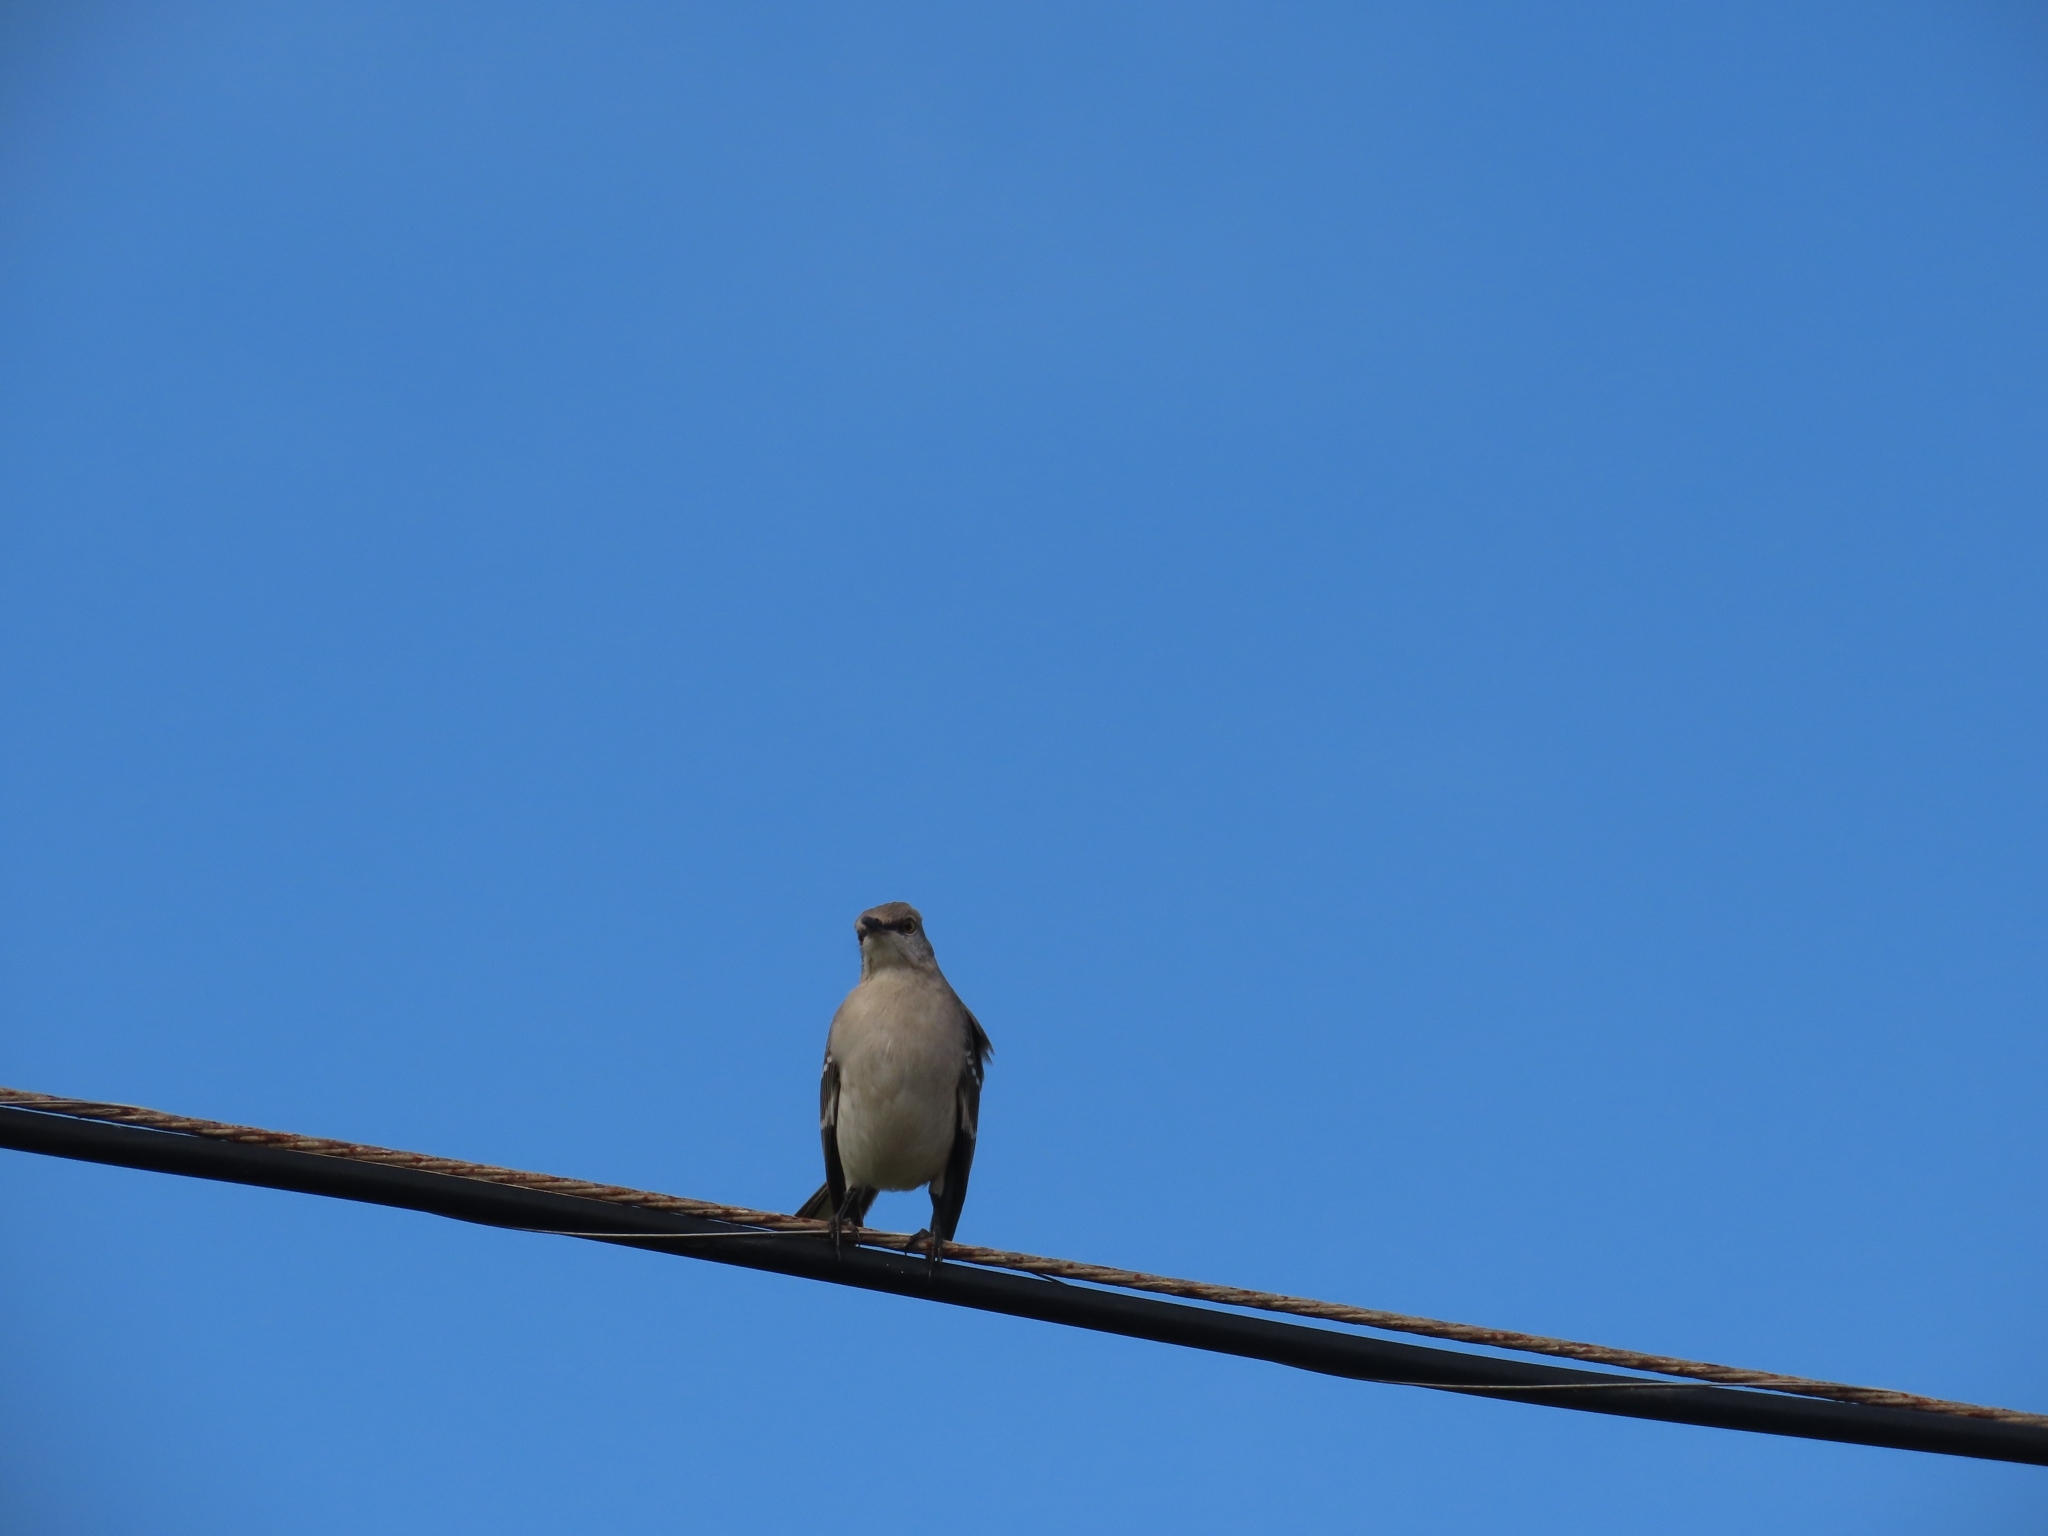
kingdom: Animalia
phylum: Chordata
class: Aves
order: Passeriformes
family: Mimidae
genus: Mimus
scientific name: Mimus polyglottos
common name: Northern mockingbird
